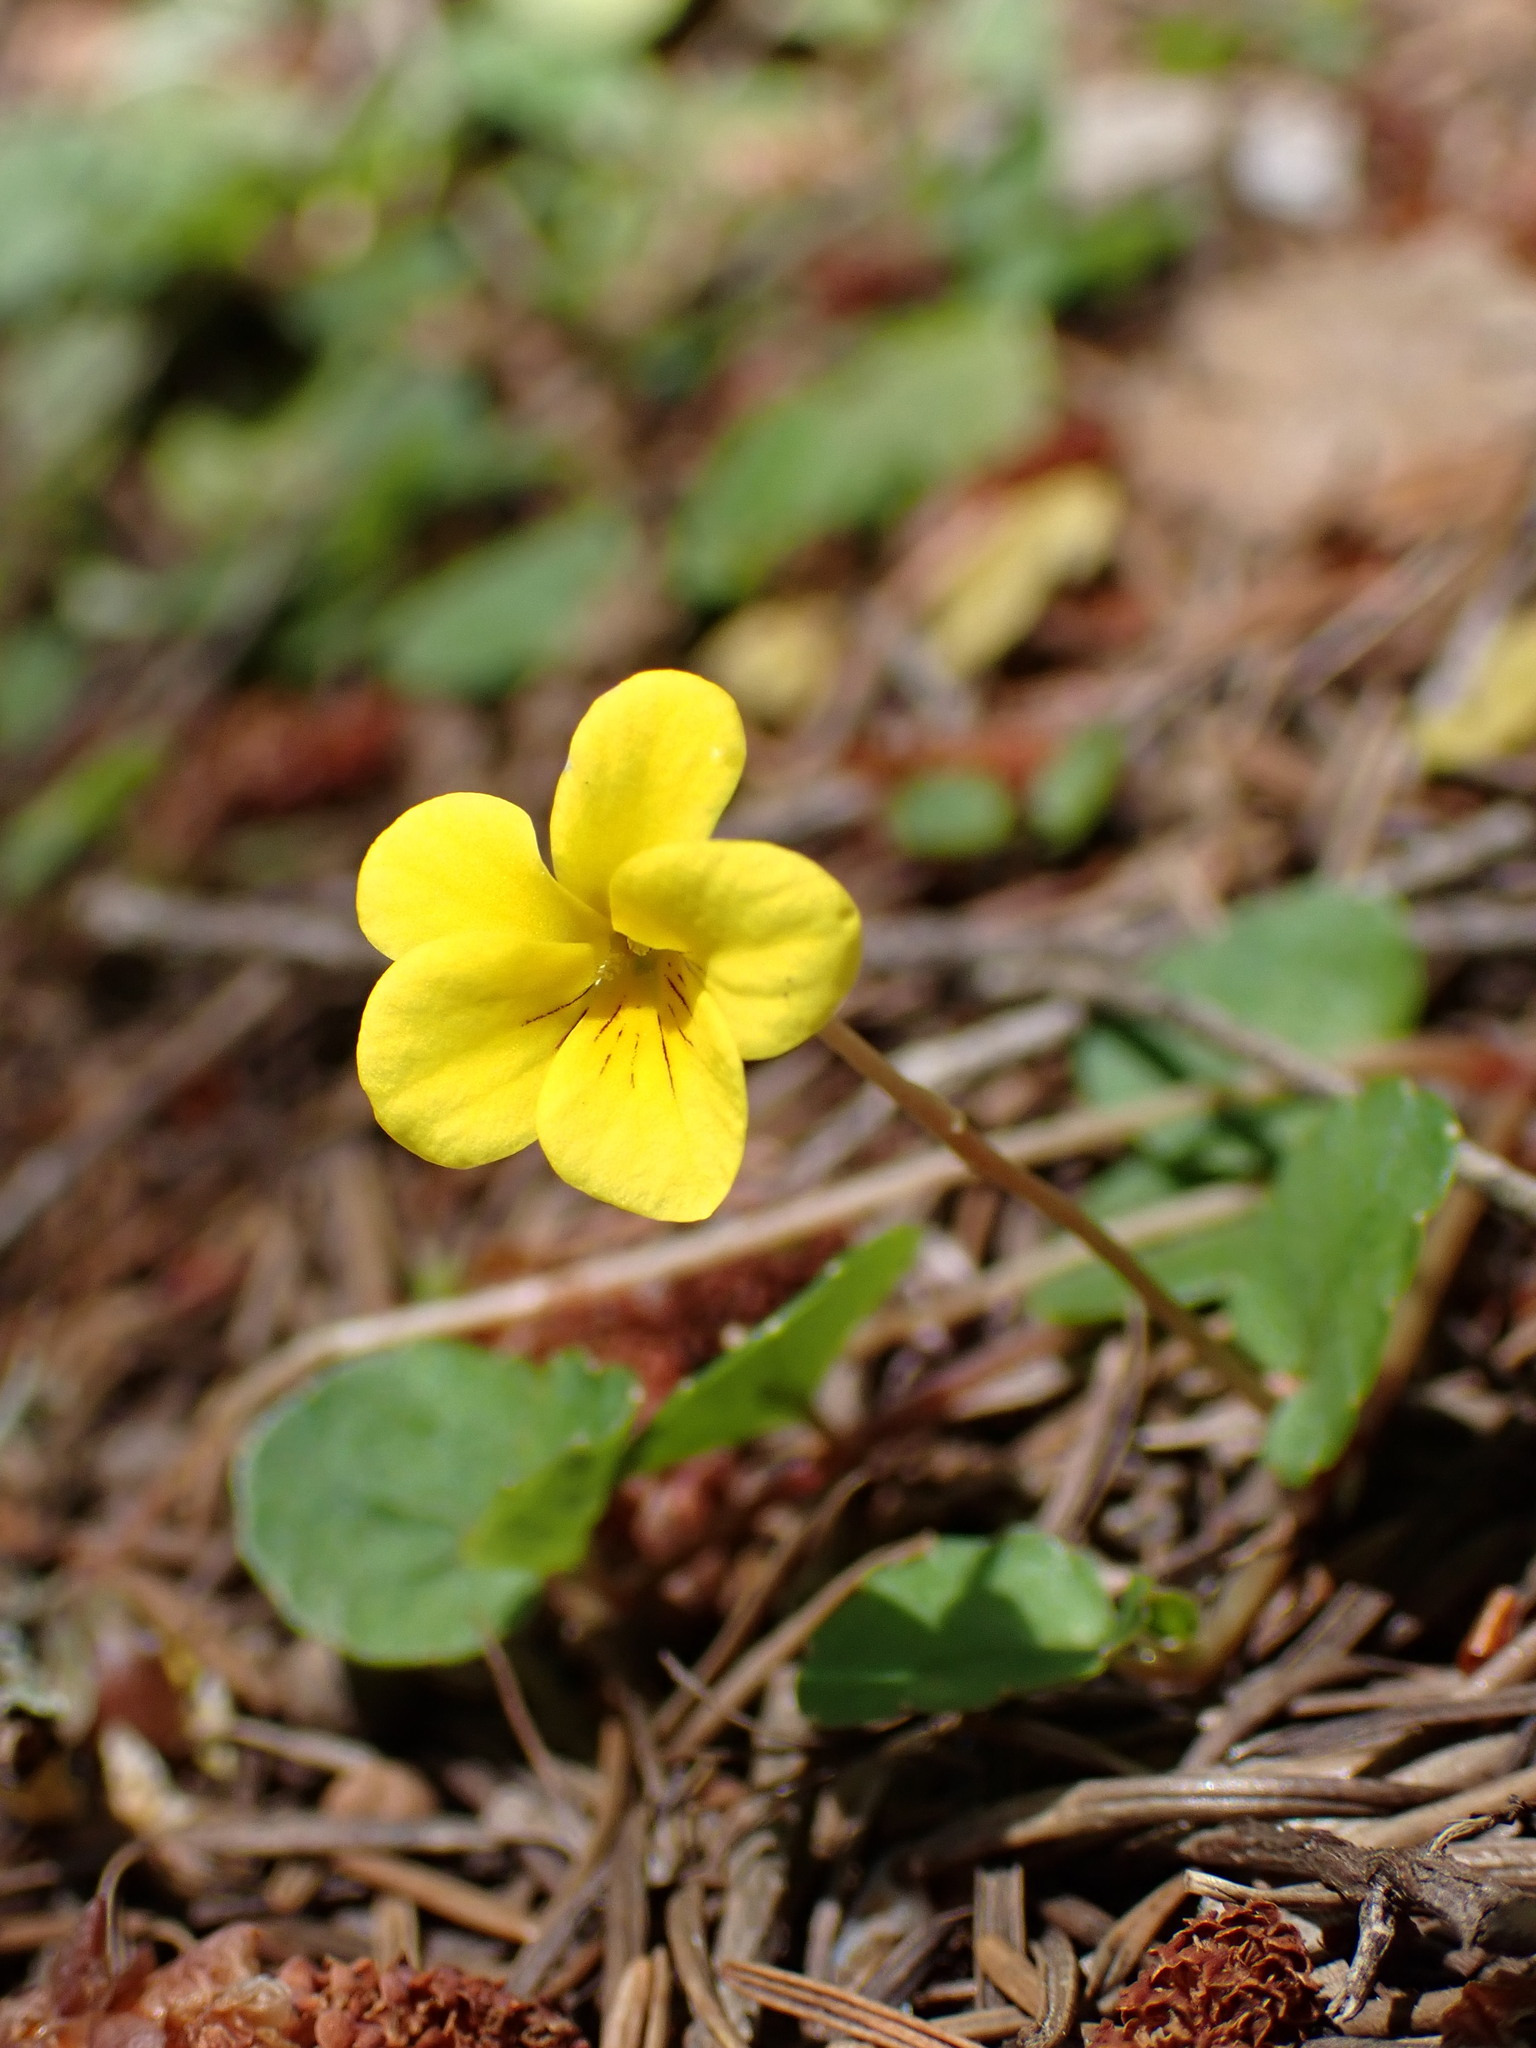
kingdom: Plantae
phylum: Tracheophyta
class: Magnoliopsida
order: Malpighiales
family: Violaceae
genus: Viola
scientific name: Viola sempervirens
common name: Evergreen violet
